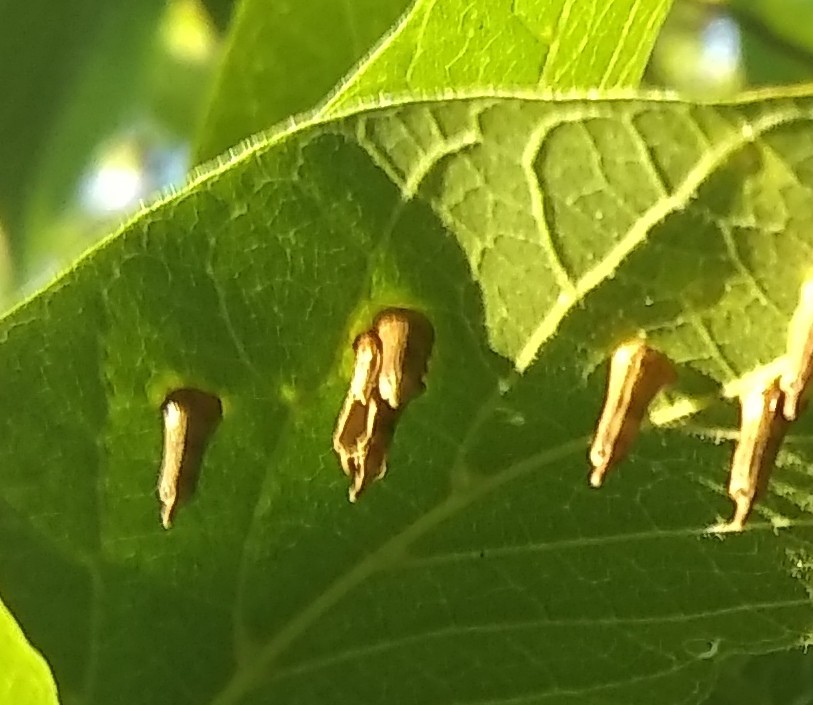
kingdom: Animalia
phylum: Arthropoda
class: Insecta
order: Diptera
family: Cecidomyiidae
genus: Celticecis
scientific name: Celticecis aciculata
